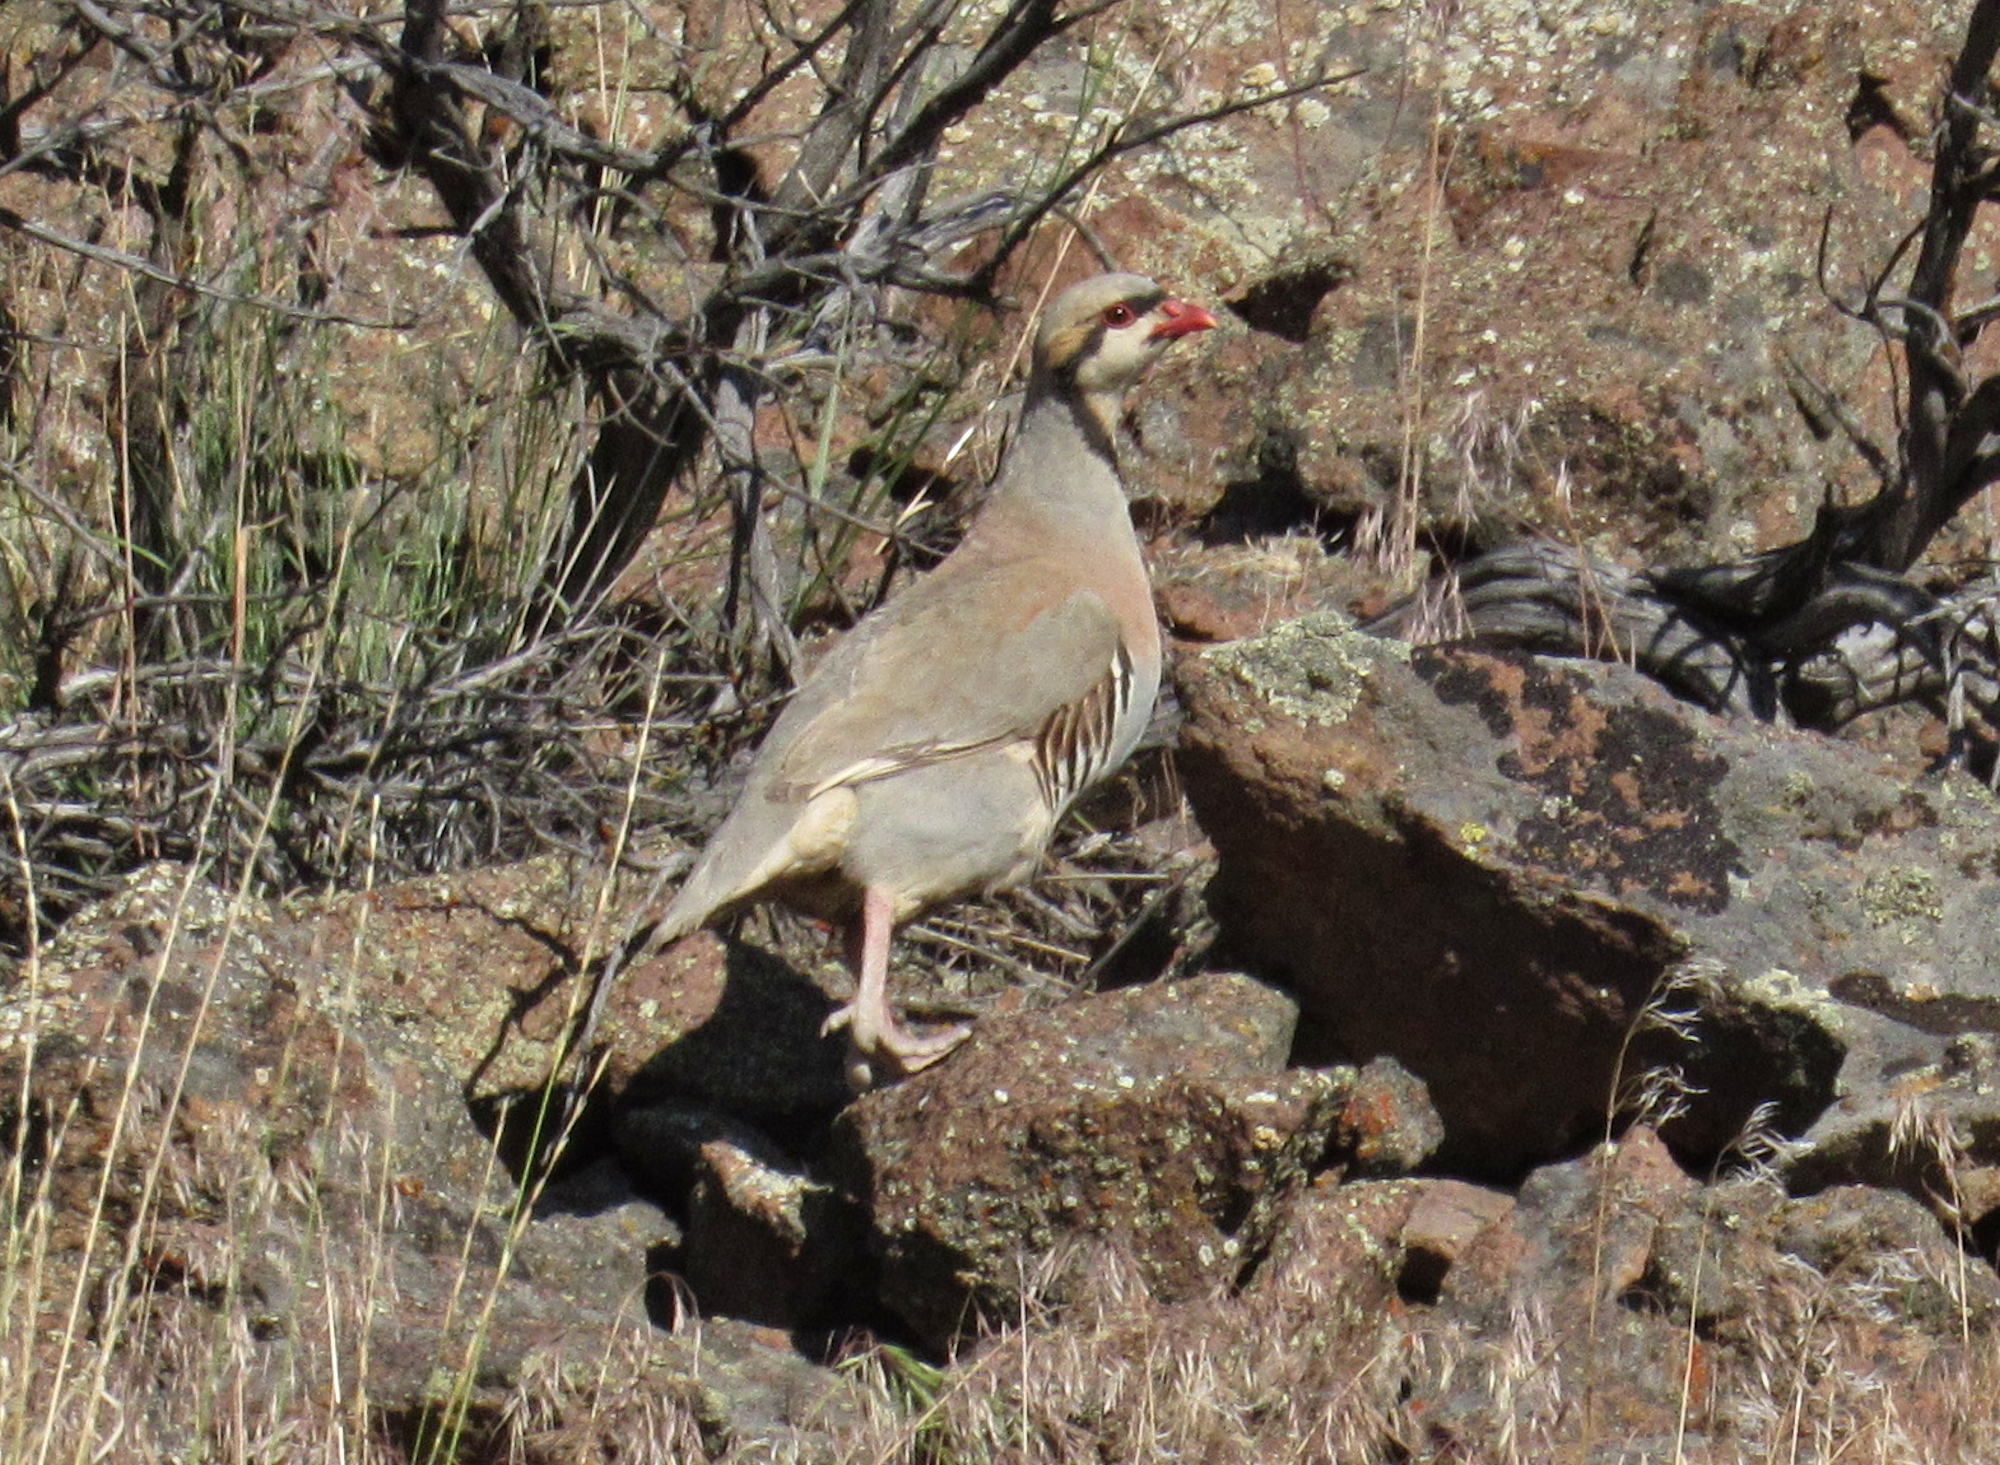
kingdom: Animalia
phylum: Chordata
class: Aves
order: Galliformes
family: Phasianidae
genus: Alectoris
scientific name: Alectoris chukar
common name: Chukar
